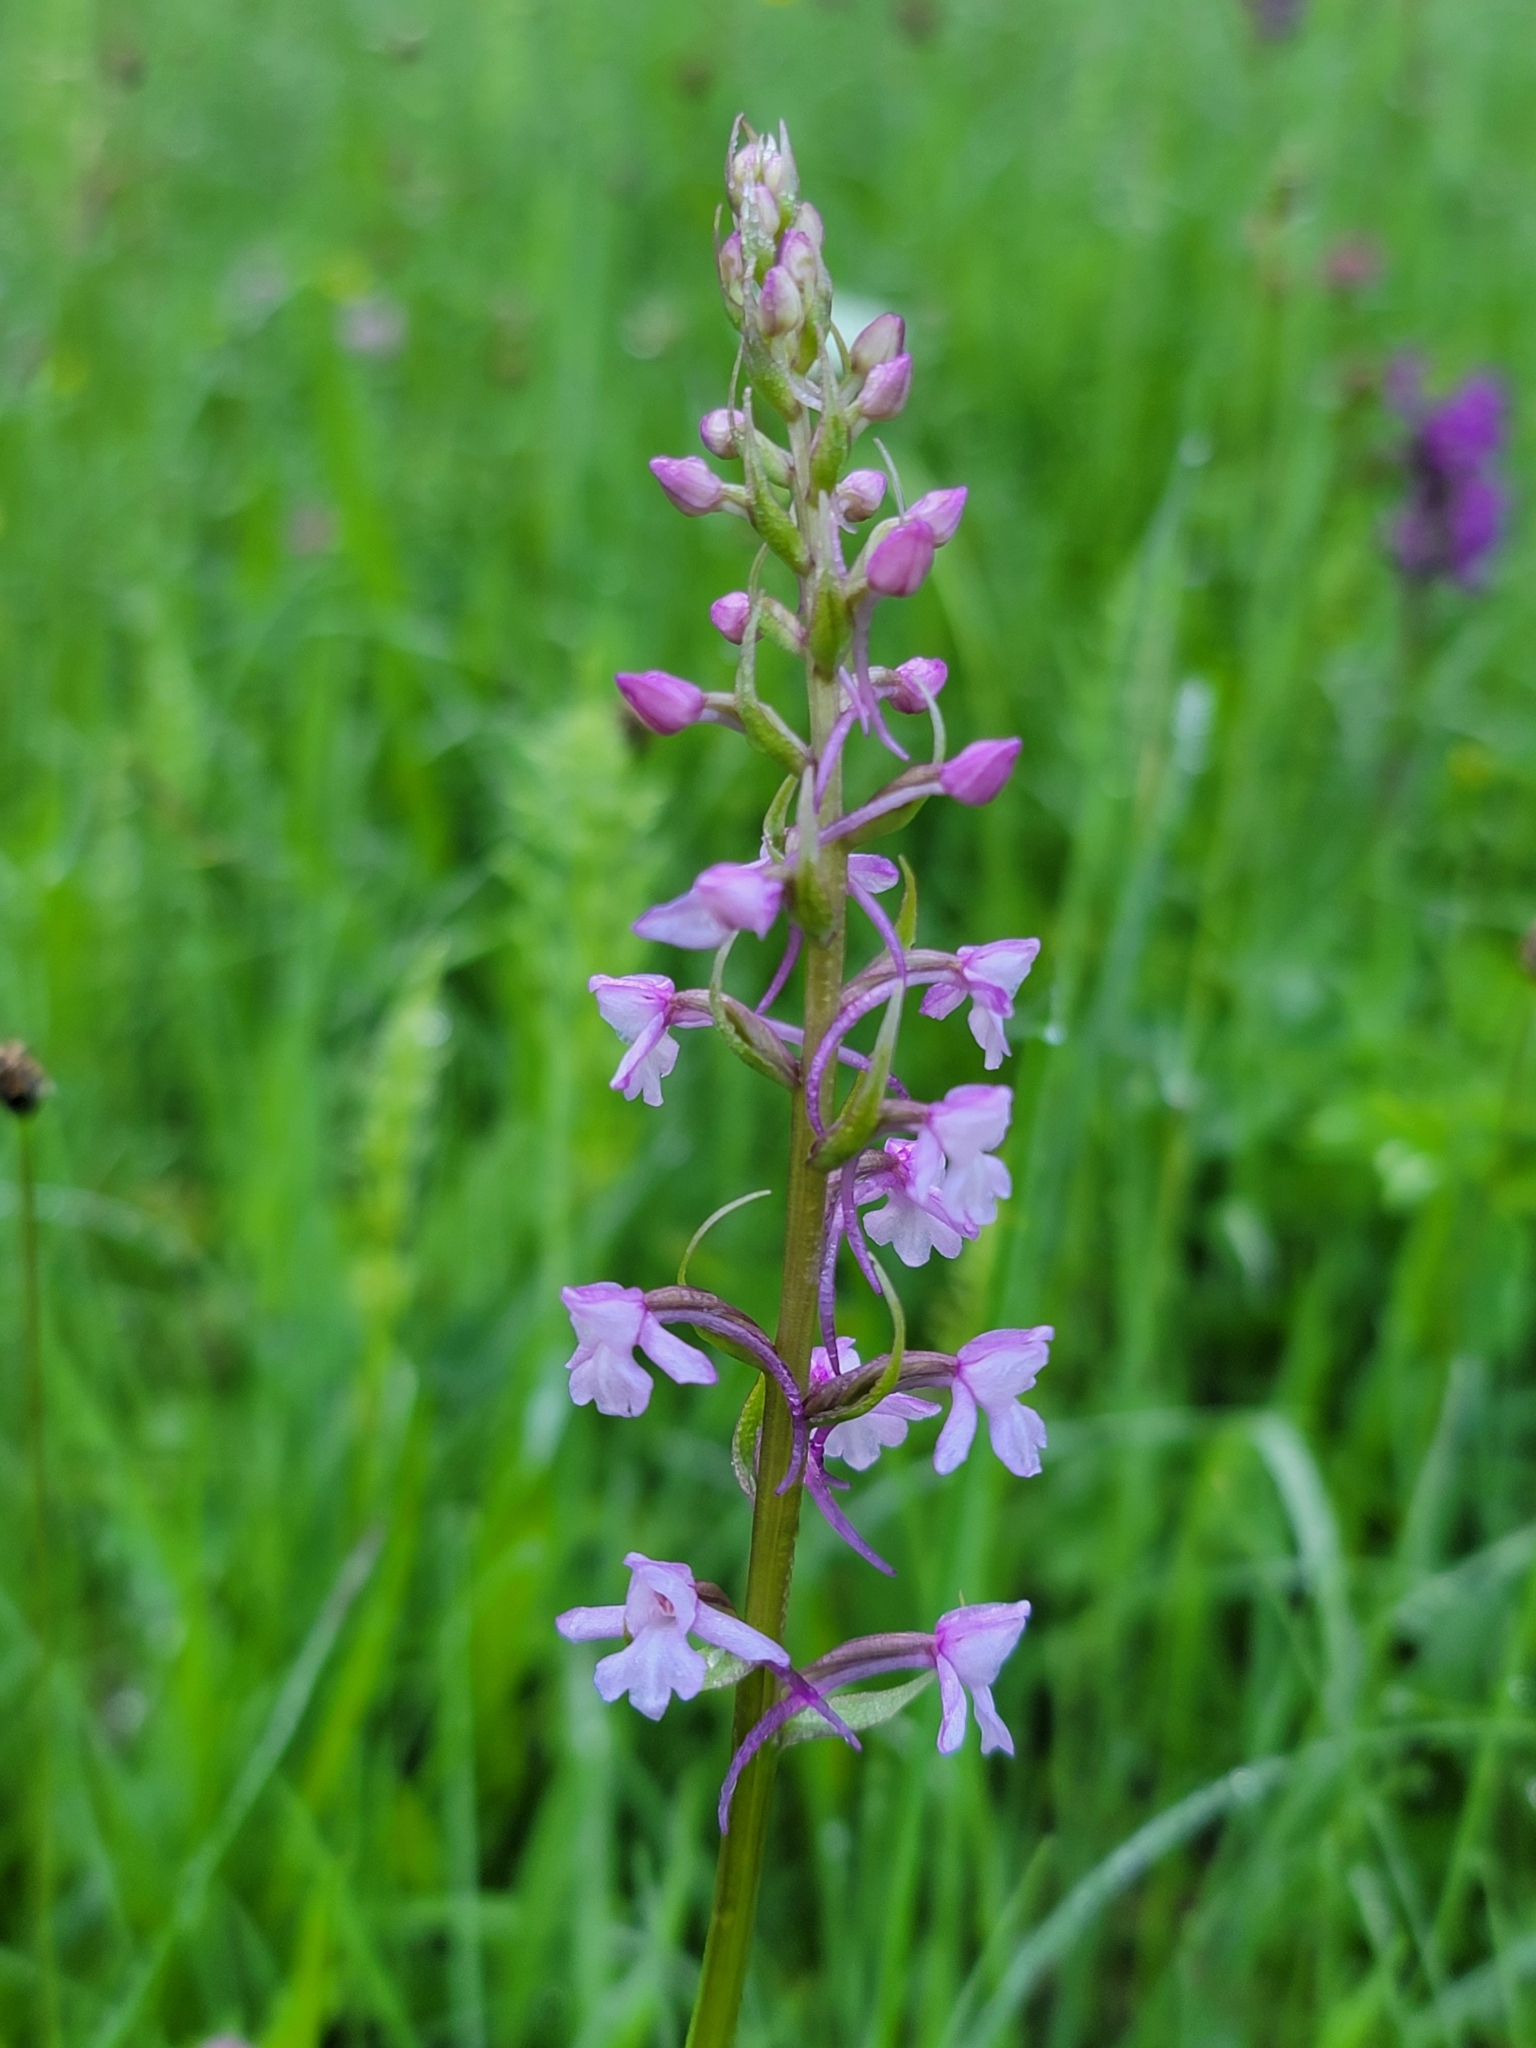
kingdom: Plantae
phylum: Tracheophyta
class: Liliopsida
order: Asparagales
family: Orchidaceae
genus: Gymnadenia
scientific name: Gymnadenia conopsea
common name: Fragrant orchid
